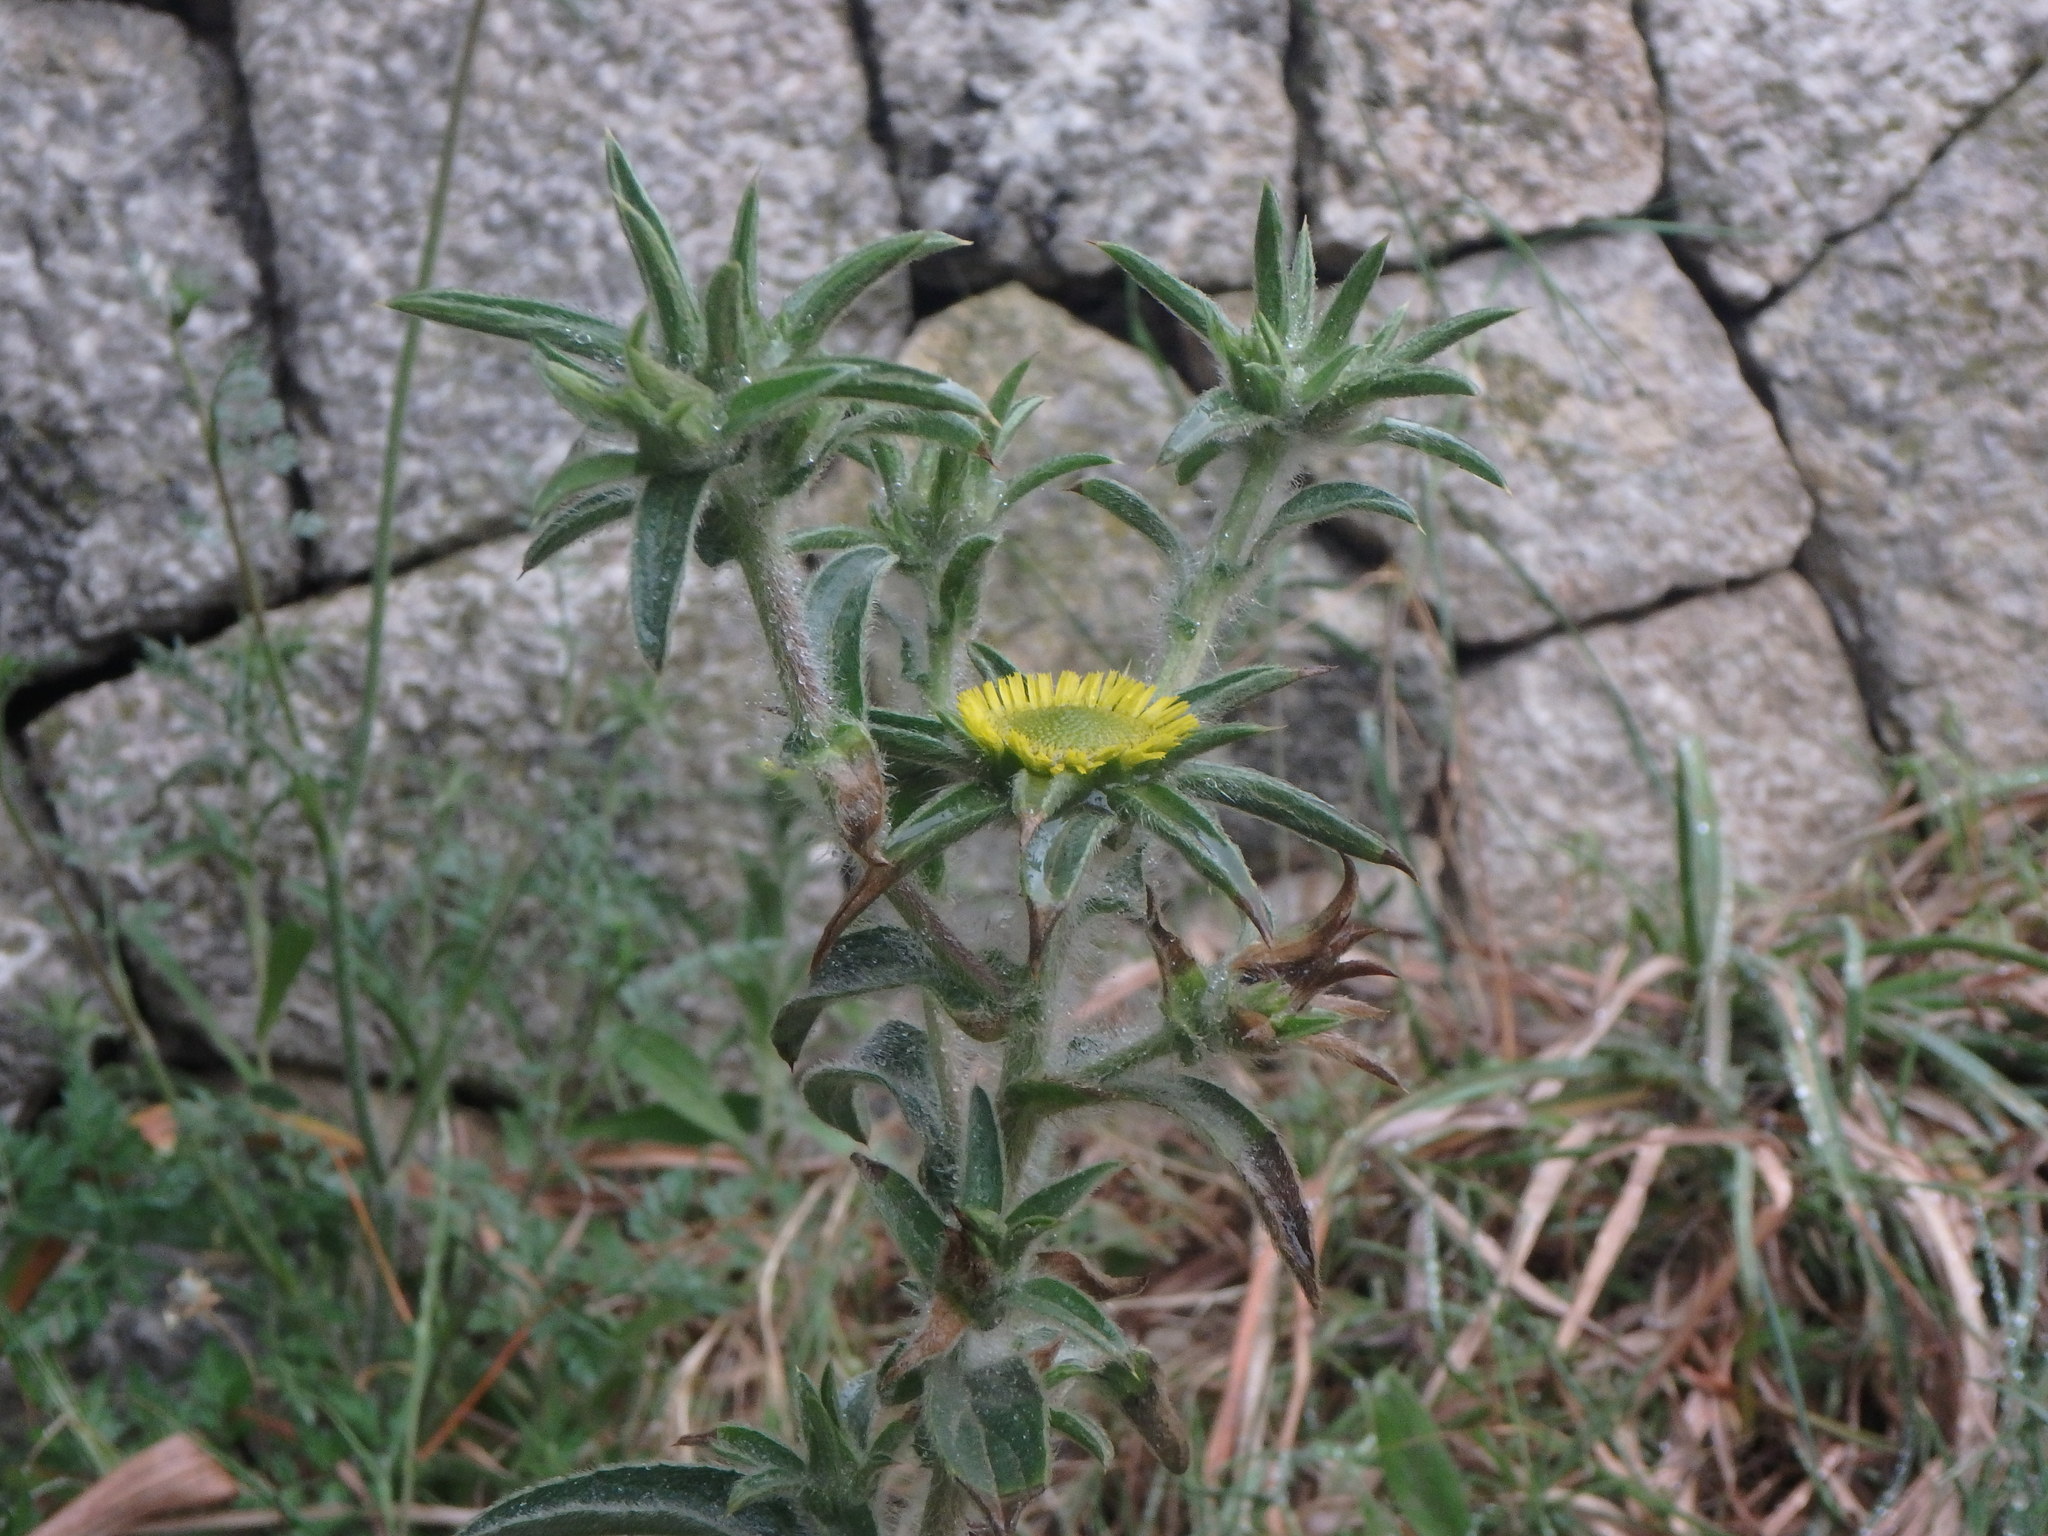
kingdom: Plantae
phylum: Tracheophyta
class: Magnoliopsida
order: Asterales
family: Asteraceae
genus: Pallenis
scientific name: Pallenis spinosa
